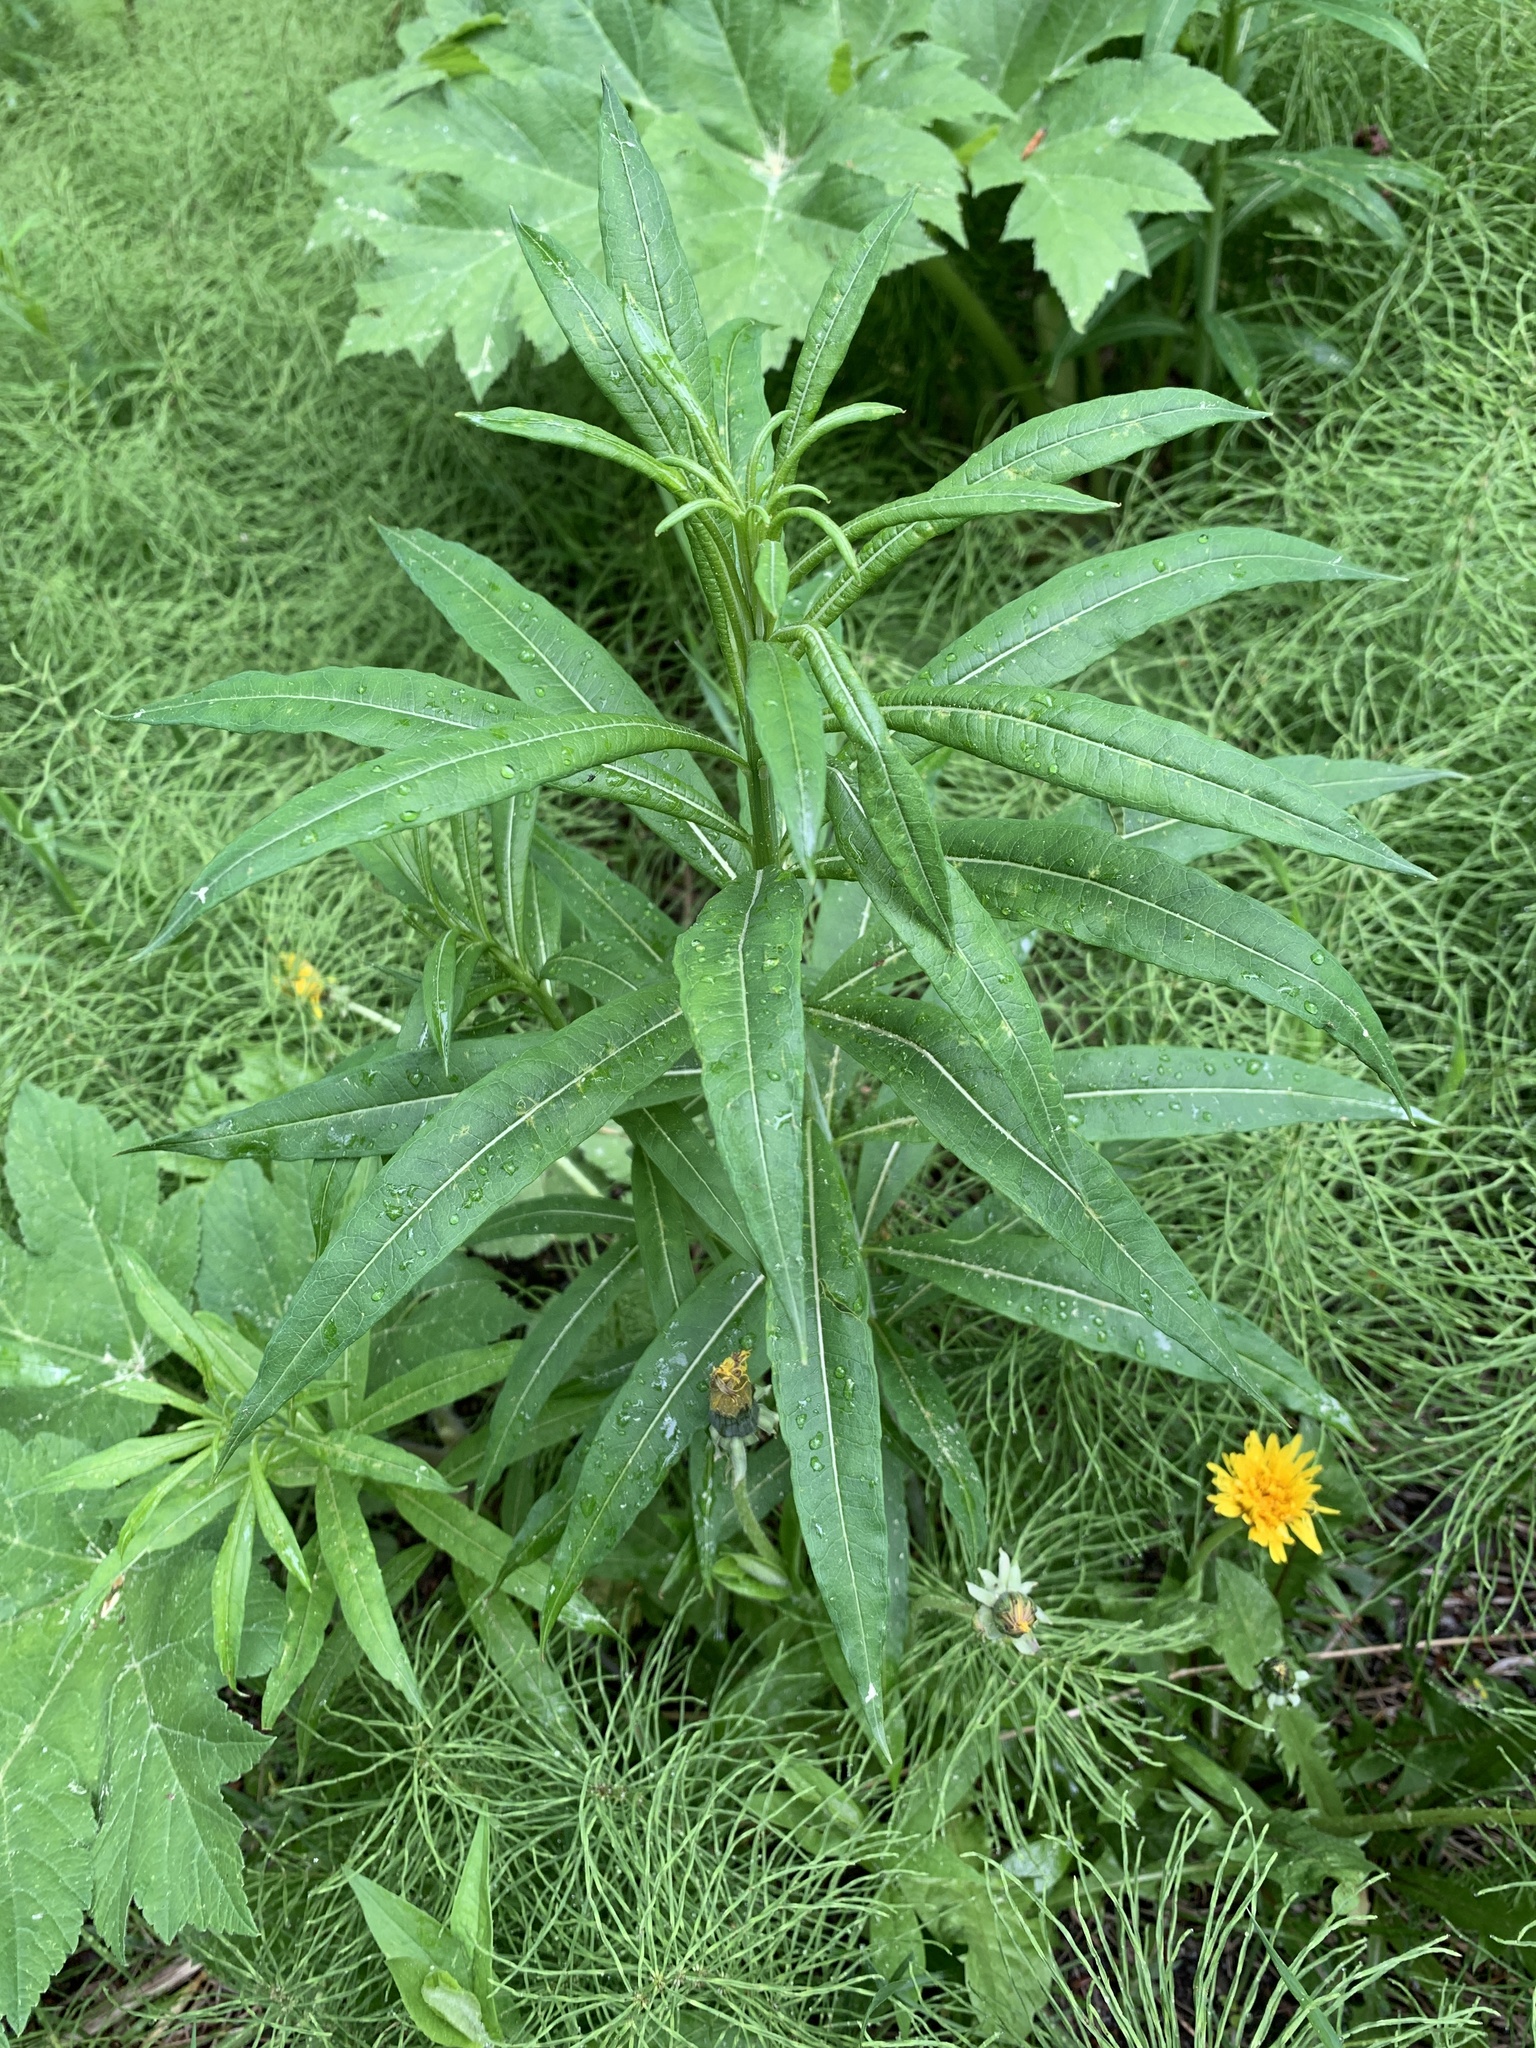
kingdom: Plantae
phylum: Tracheophyta
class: Magnoliopsida
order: Myrtales
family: Onagraceae
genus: Chamaenerion
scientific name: Chamaenerion angustifolium
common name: Fireweed
